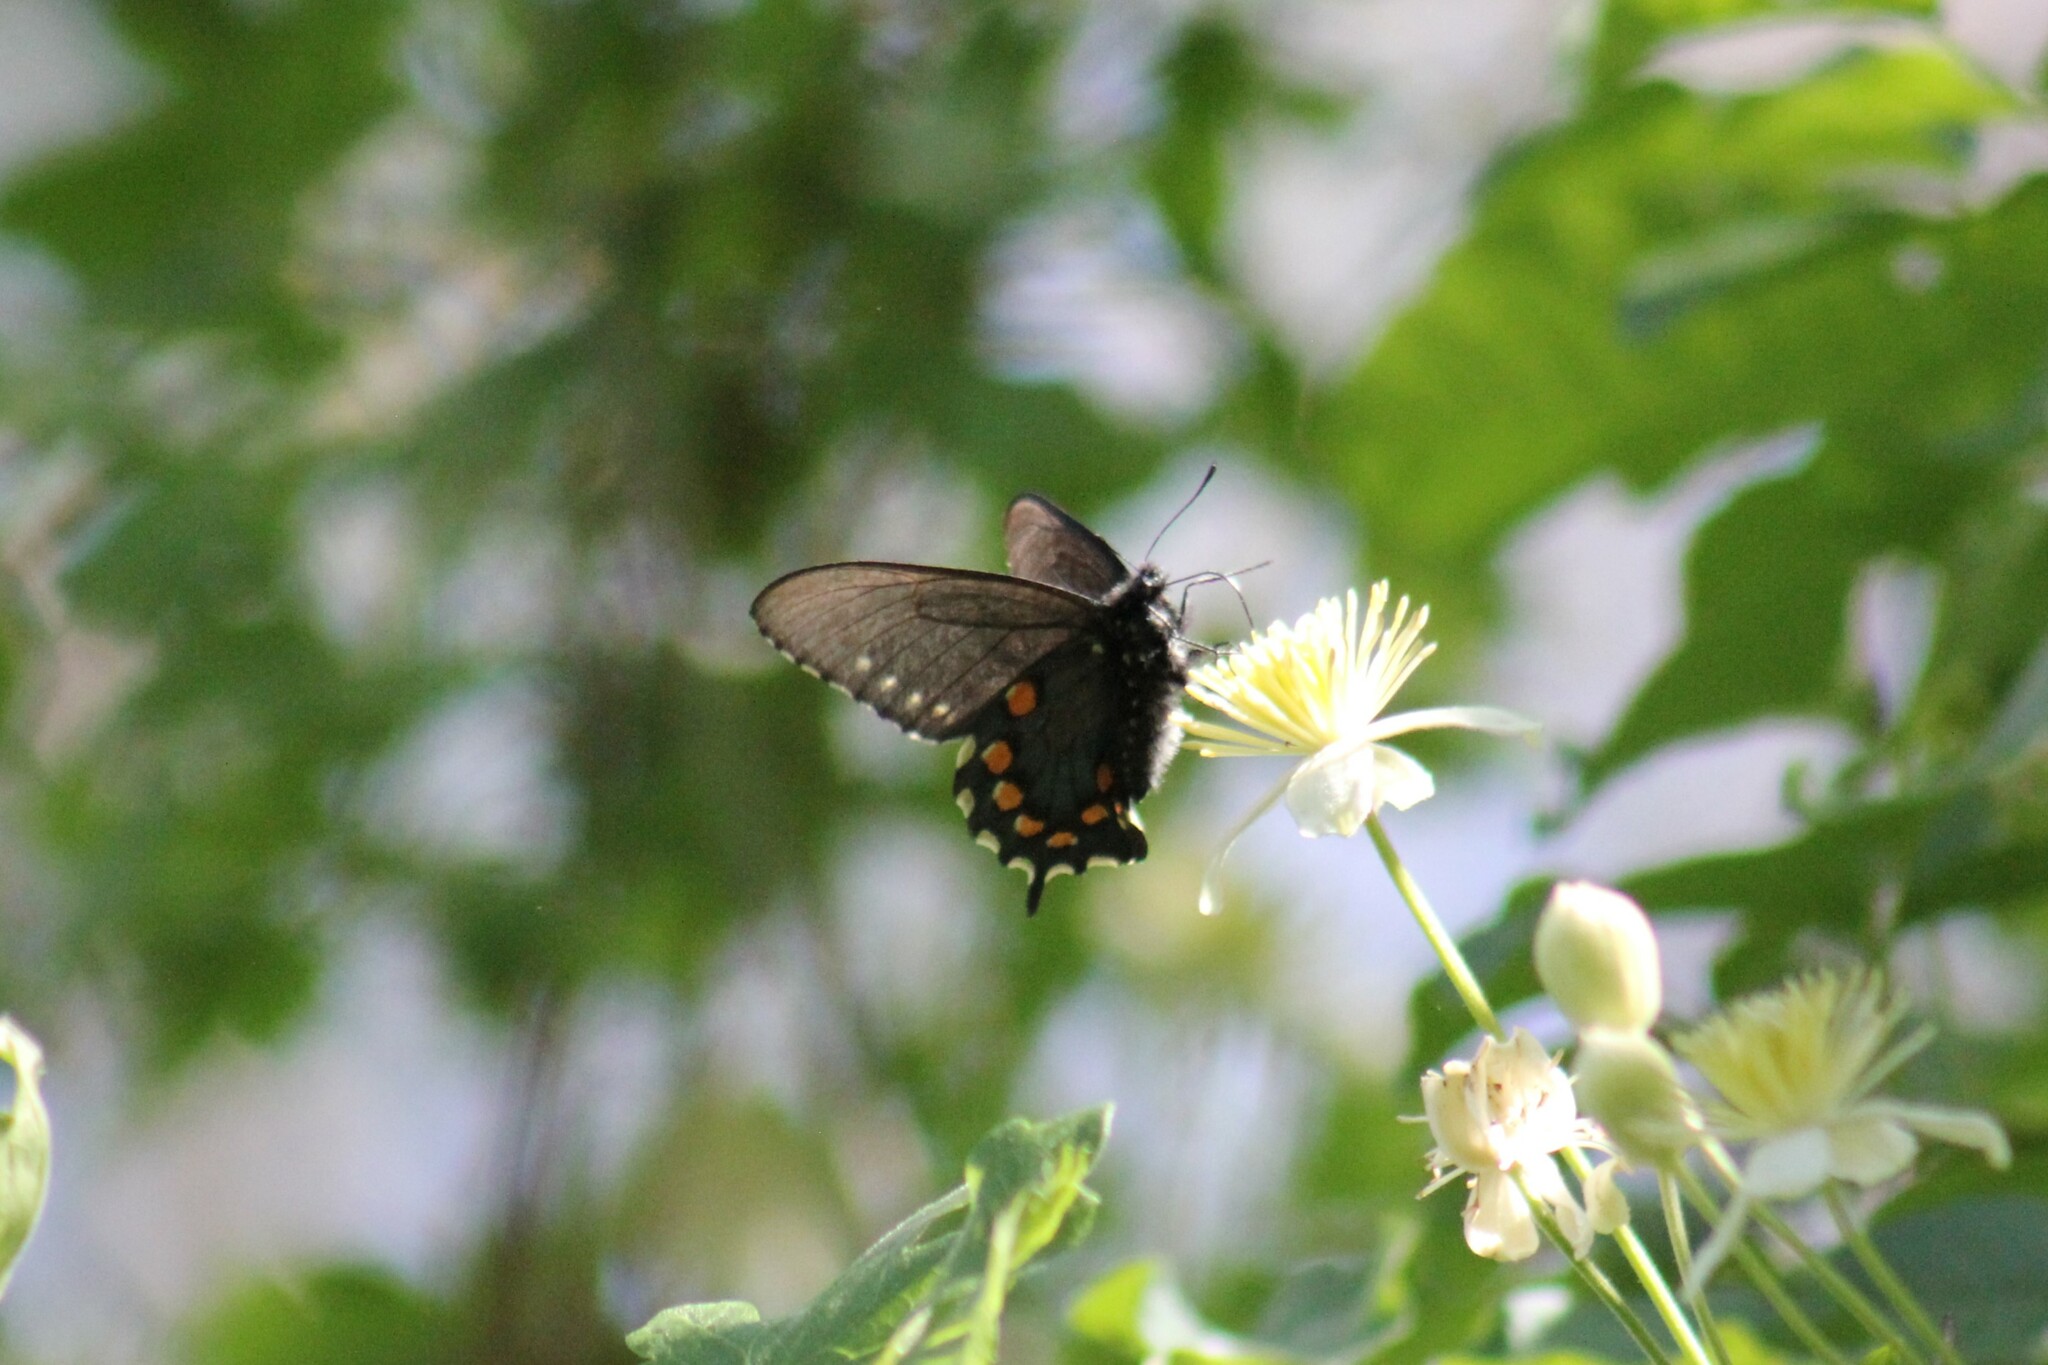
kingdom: Animalia
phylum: Arthropoda
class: Insecta
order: Lepidoptera
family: Papilionidae
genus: Battus
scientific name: Battus philenor
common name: Pipevine swallowtail
